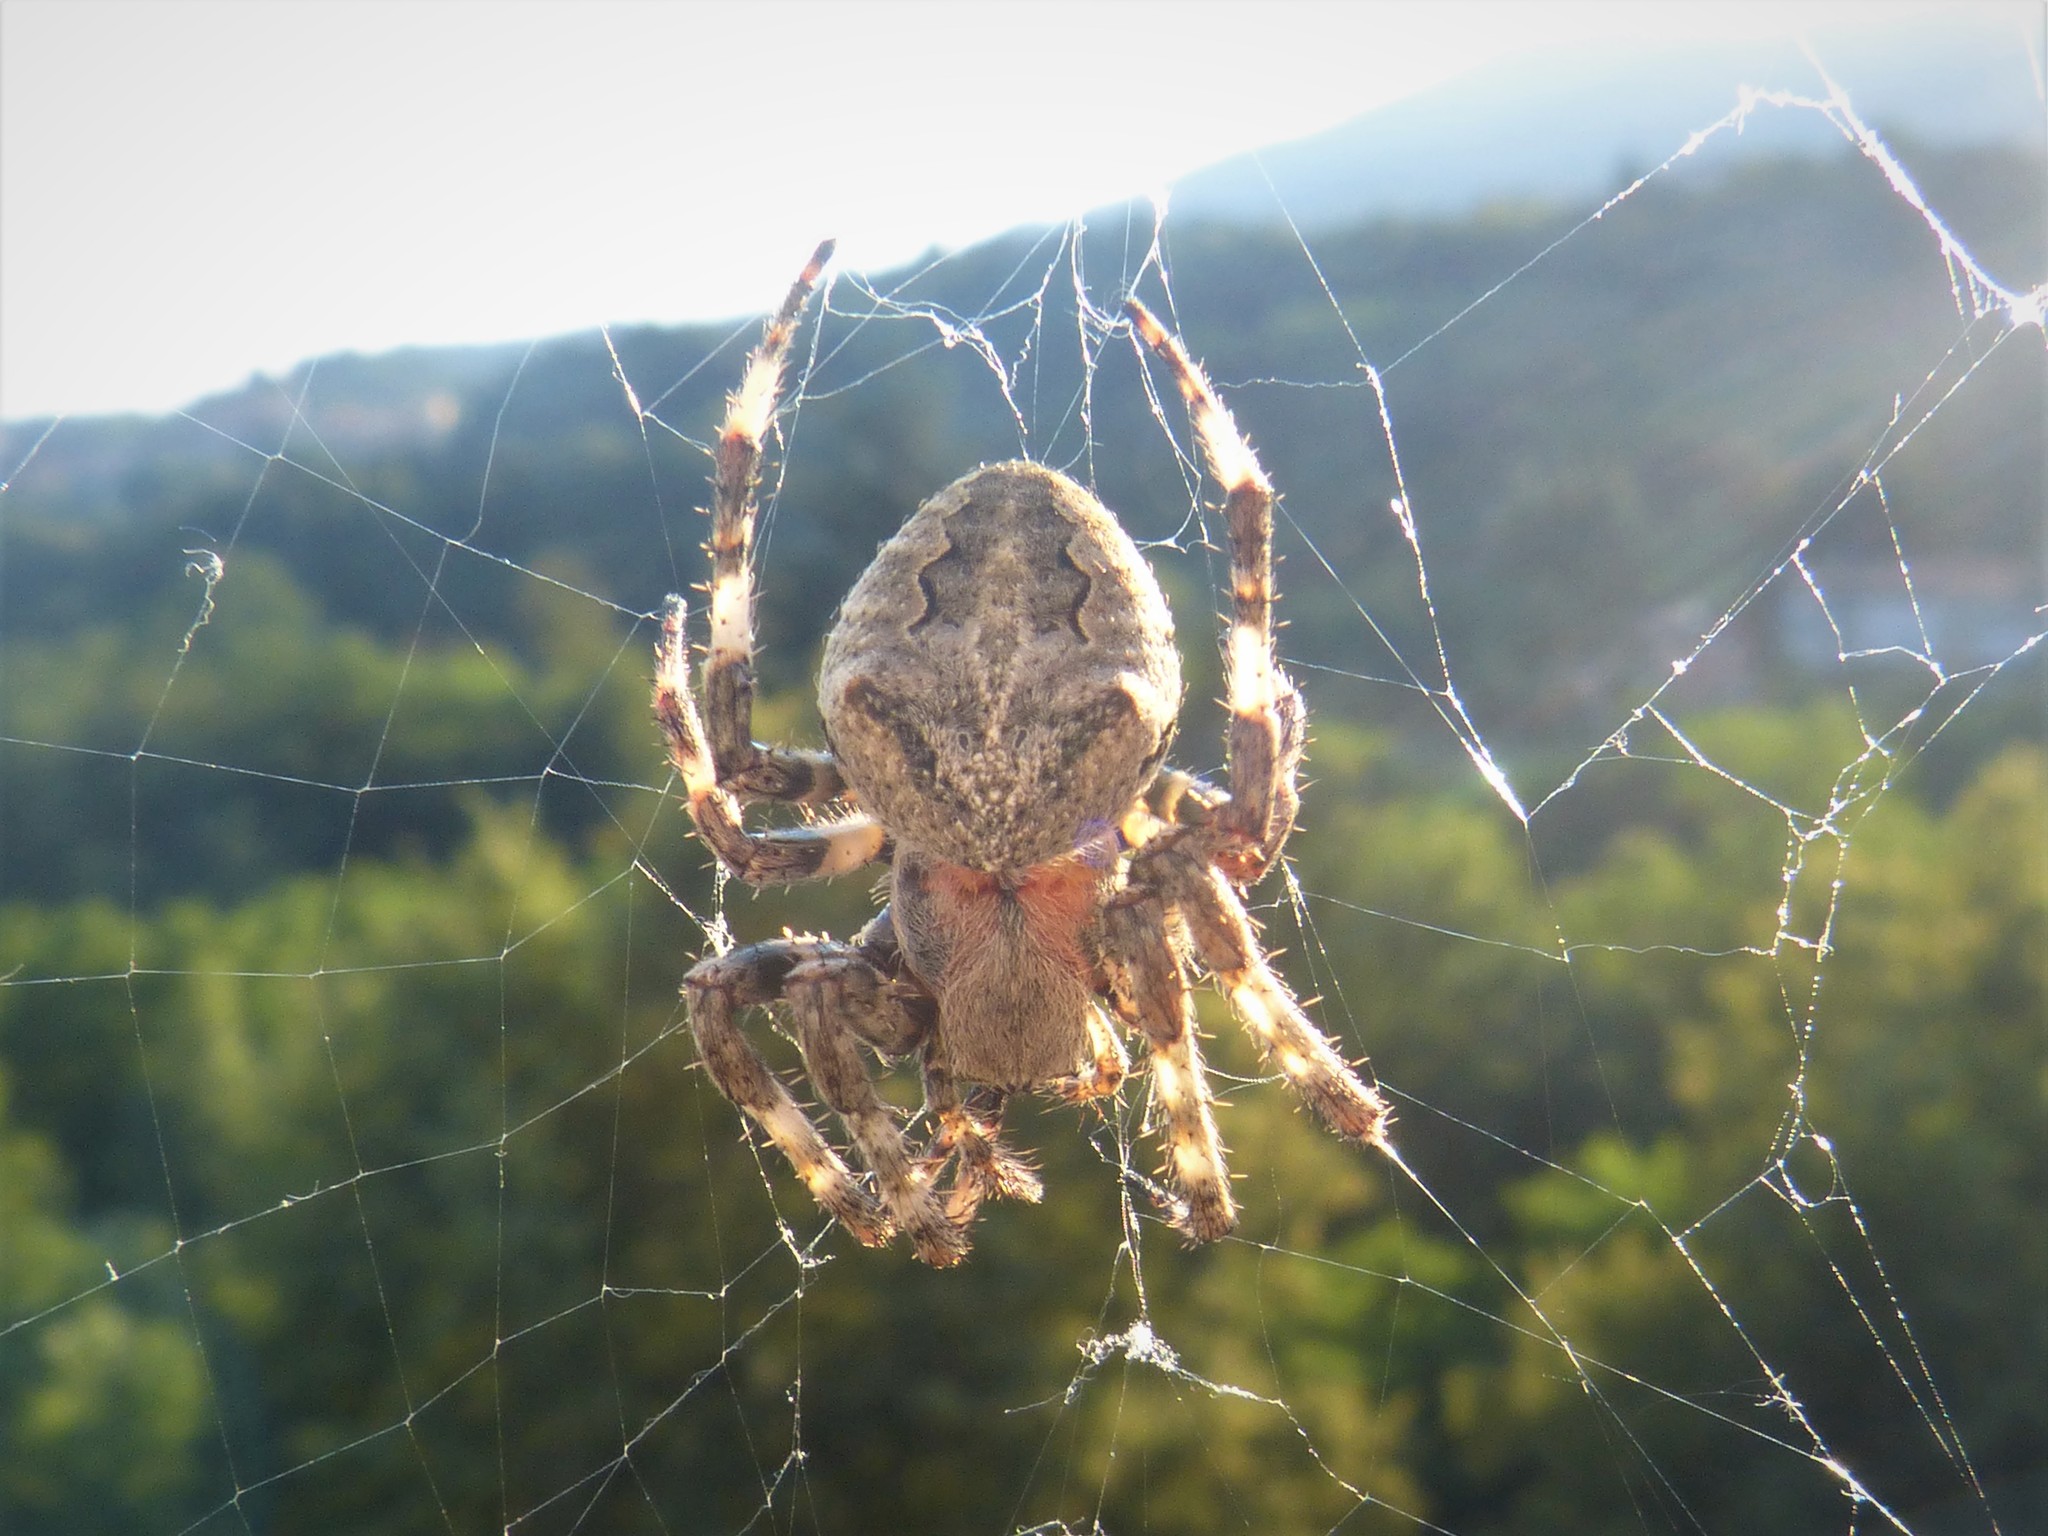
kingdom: Animalia
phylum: Arthropoda
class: Arachnida
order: Araneae
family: Araneidae
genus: Araneus
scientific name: Araneus angulatus
